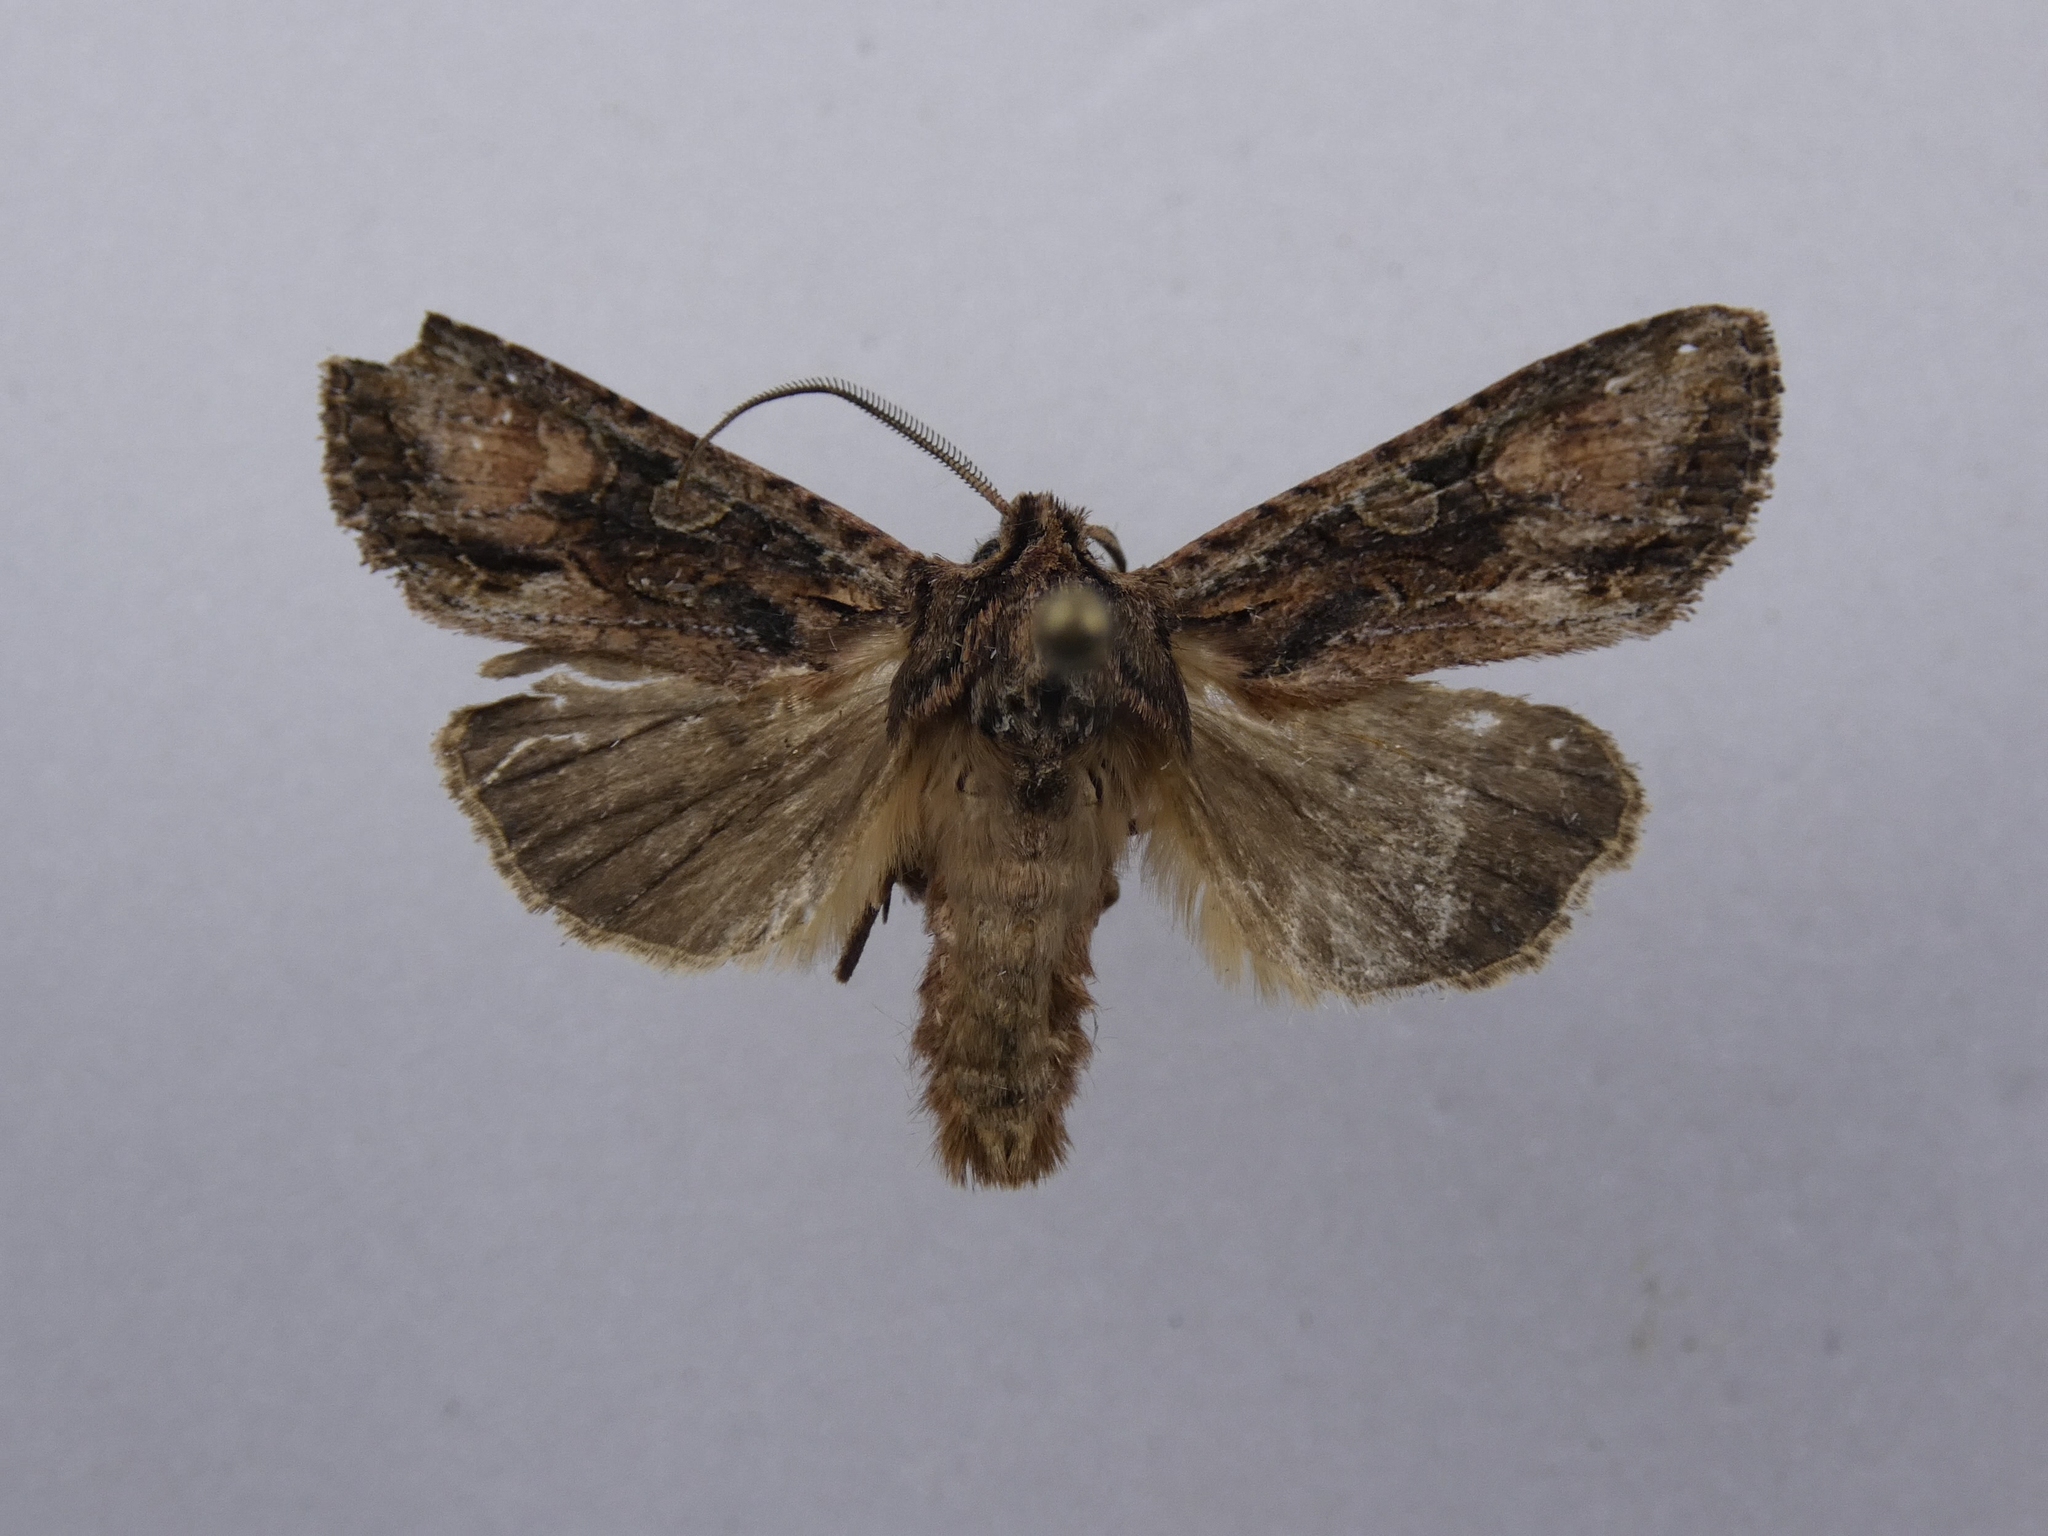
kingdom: Animalia
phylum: Arthropoda
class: Insecta
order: Lepidoptera
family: Noctuidae
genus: Ichneutica
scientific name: Ichneutica mutans
